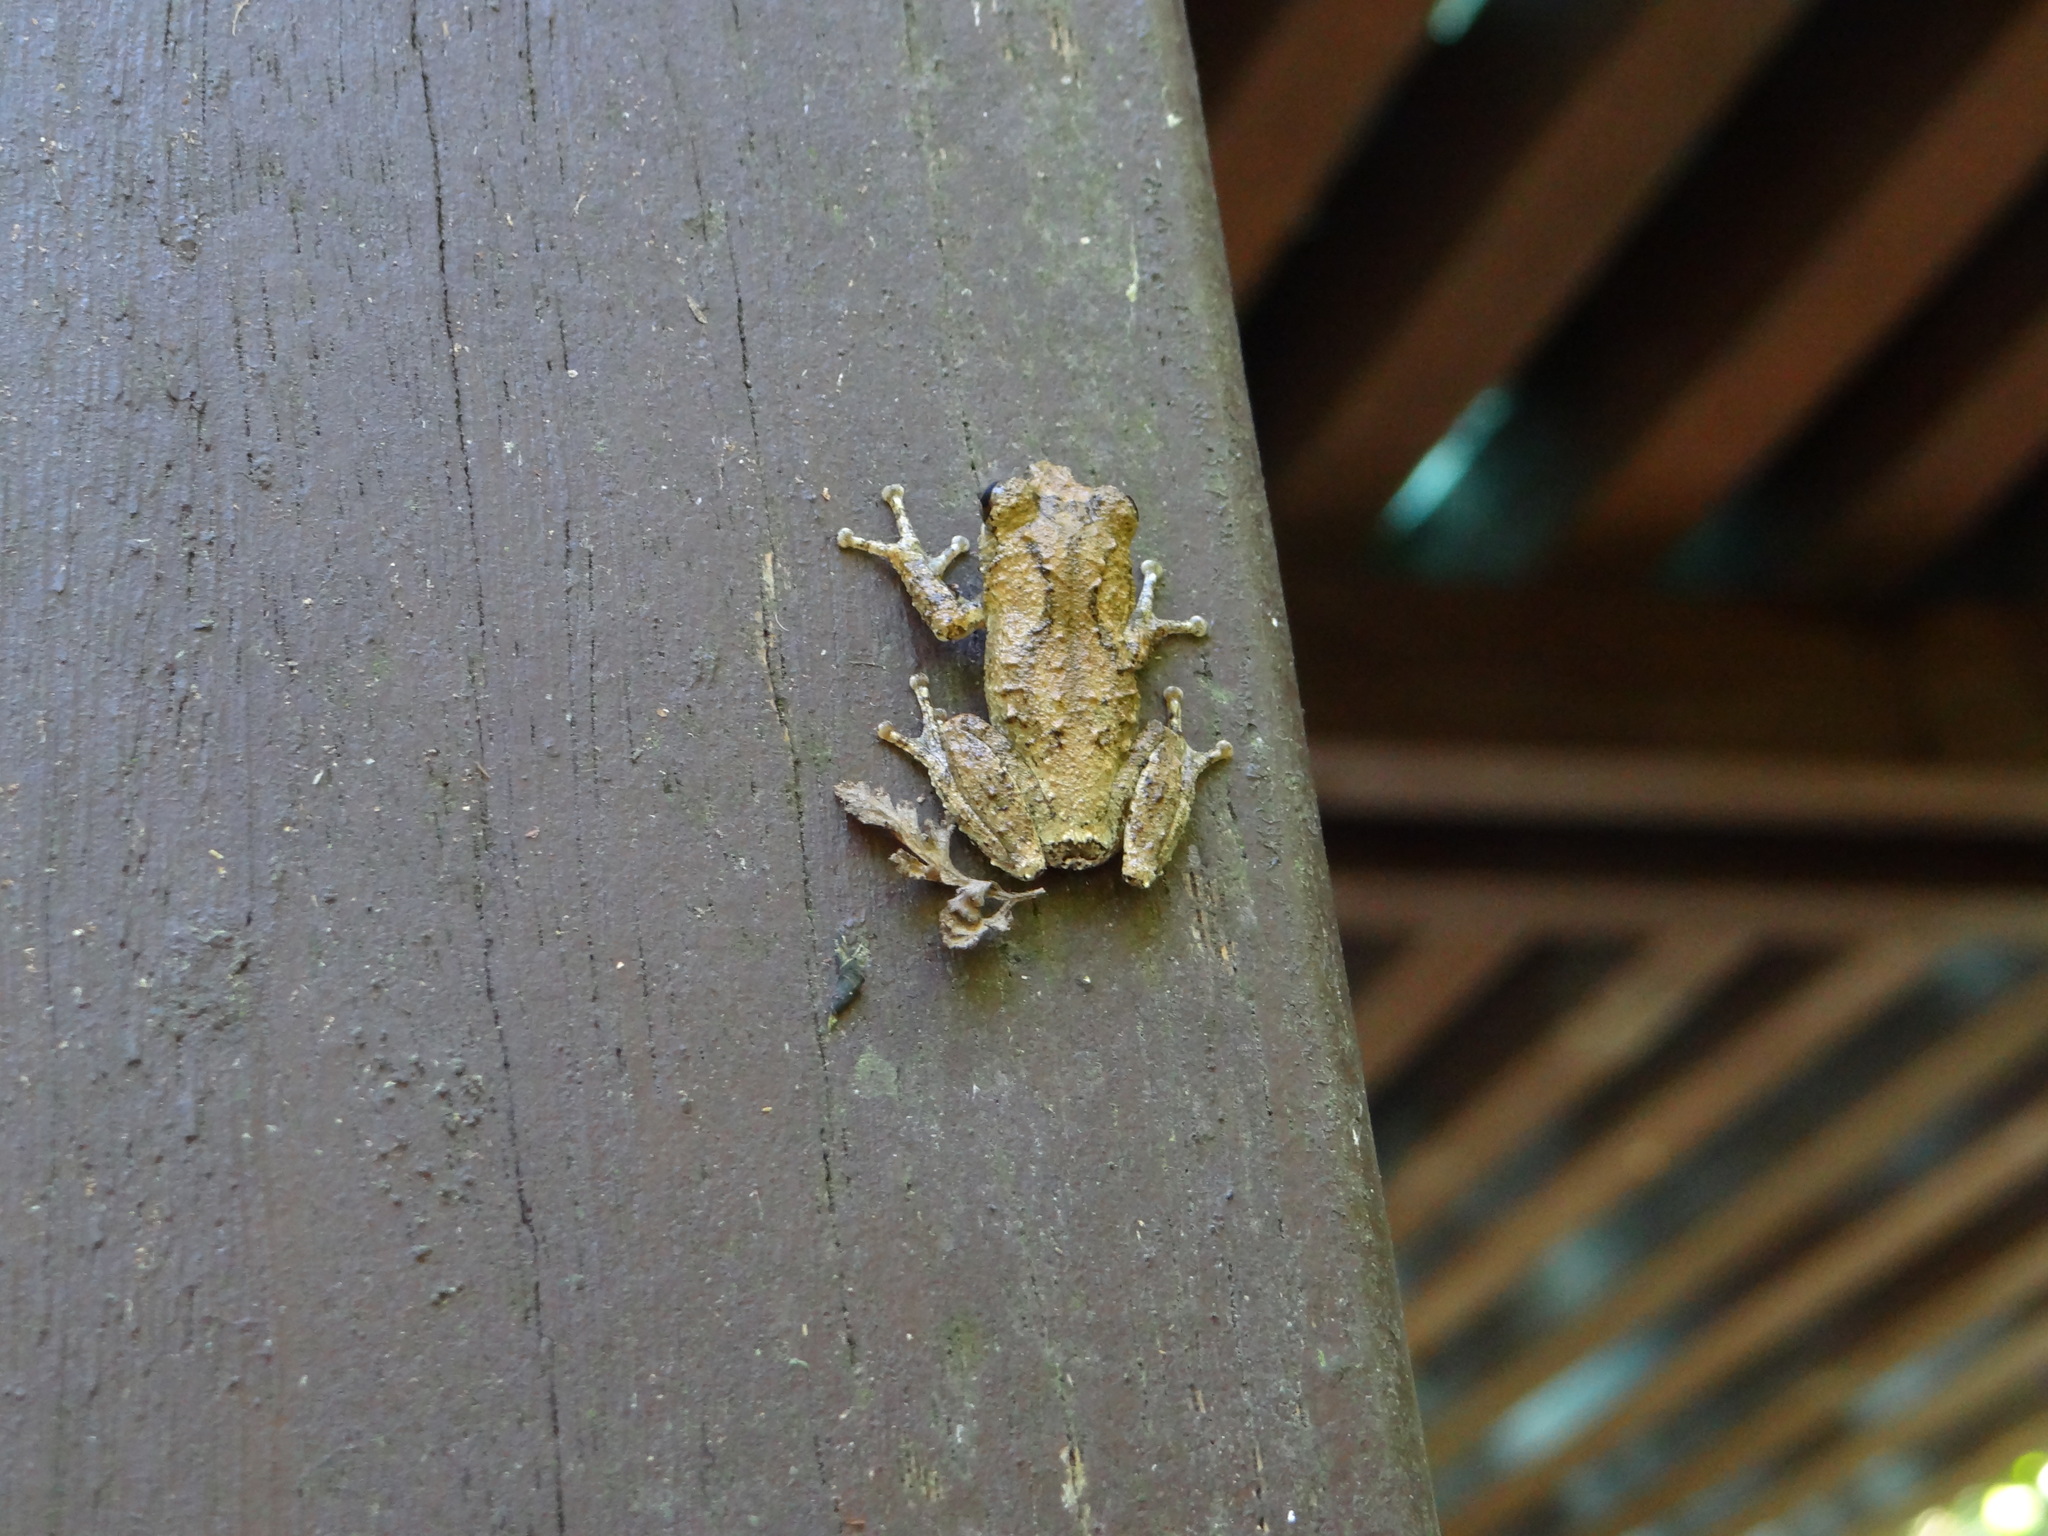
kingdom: Animalia
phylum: Chordata
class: Amphibia
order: Anura
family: Rhacophoridae
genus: Kurixalus
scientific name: Kurixalus idiootocus
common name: Temple treefrog
